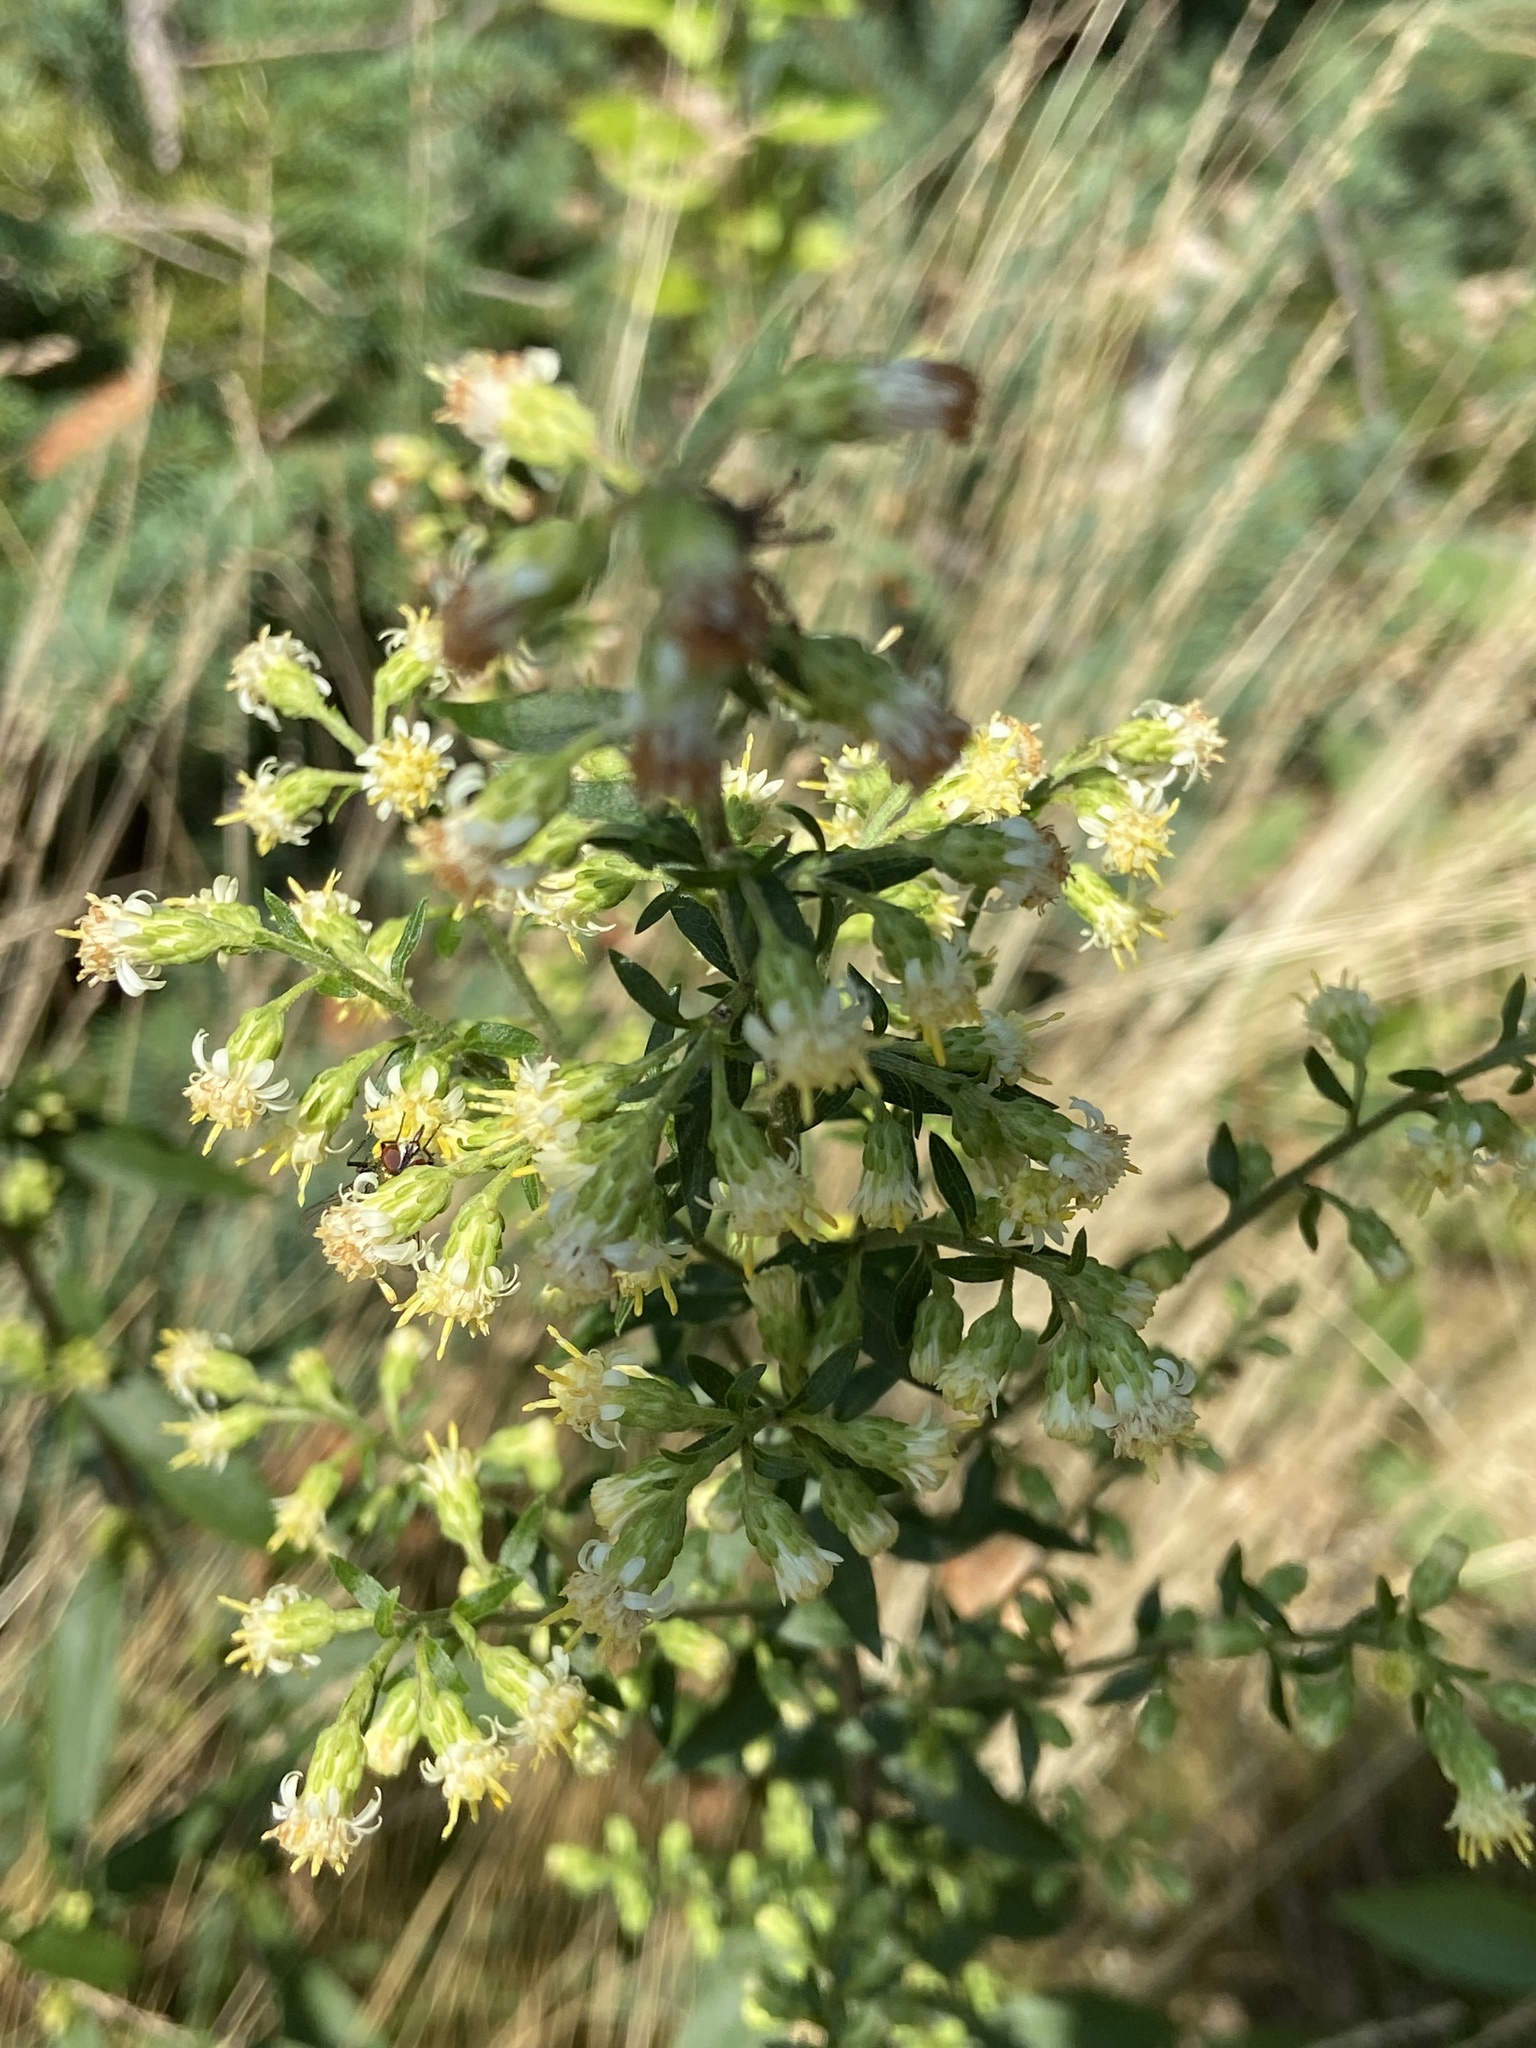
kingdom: Plantae
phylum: Tracheophyta
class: Magnoliopsida
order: Asterales
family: Asteraceae
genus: Solidago
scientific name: Solidago bicolor
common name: Silverrod
